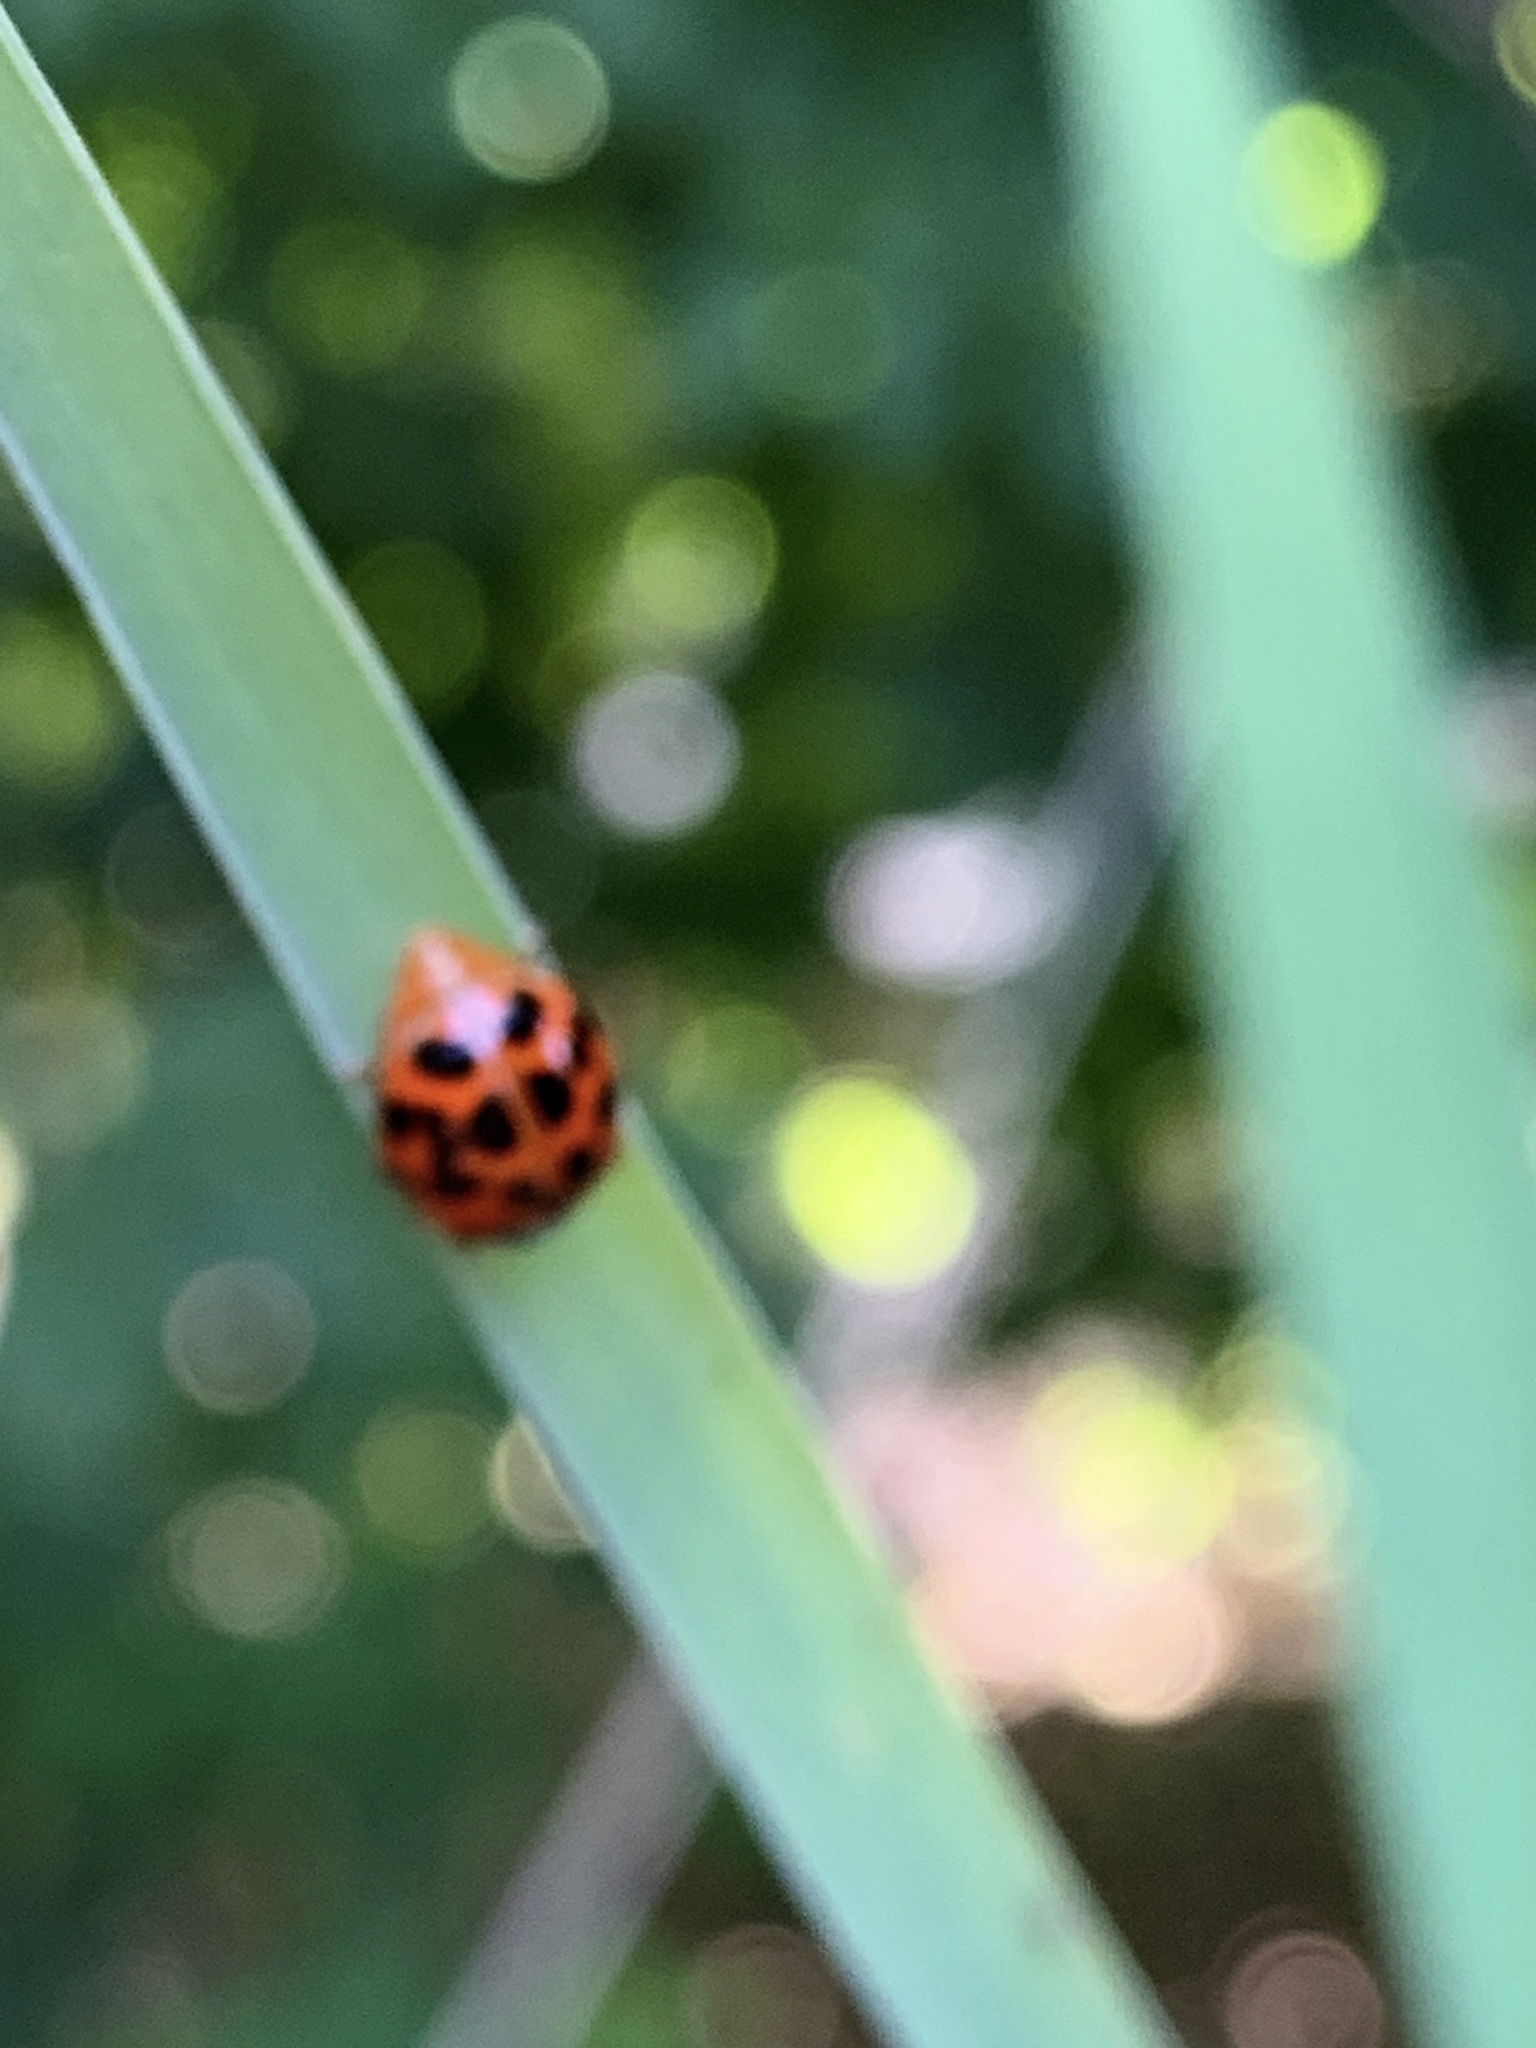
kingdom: Animalia
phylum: Arthropoda
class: Insecta
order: Coleoptera
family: Coccinellidae
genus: Harmonia
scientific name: Harmonia axyridis
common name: Harlequin ladybird
